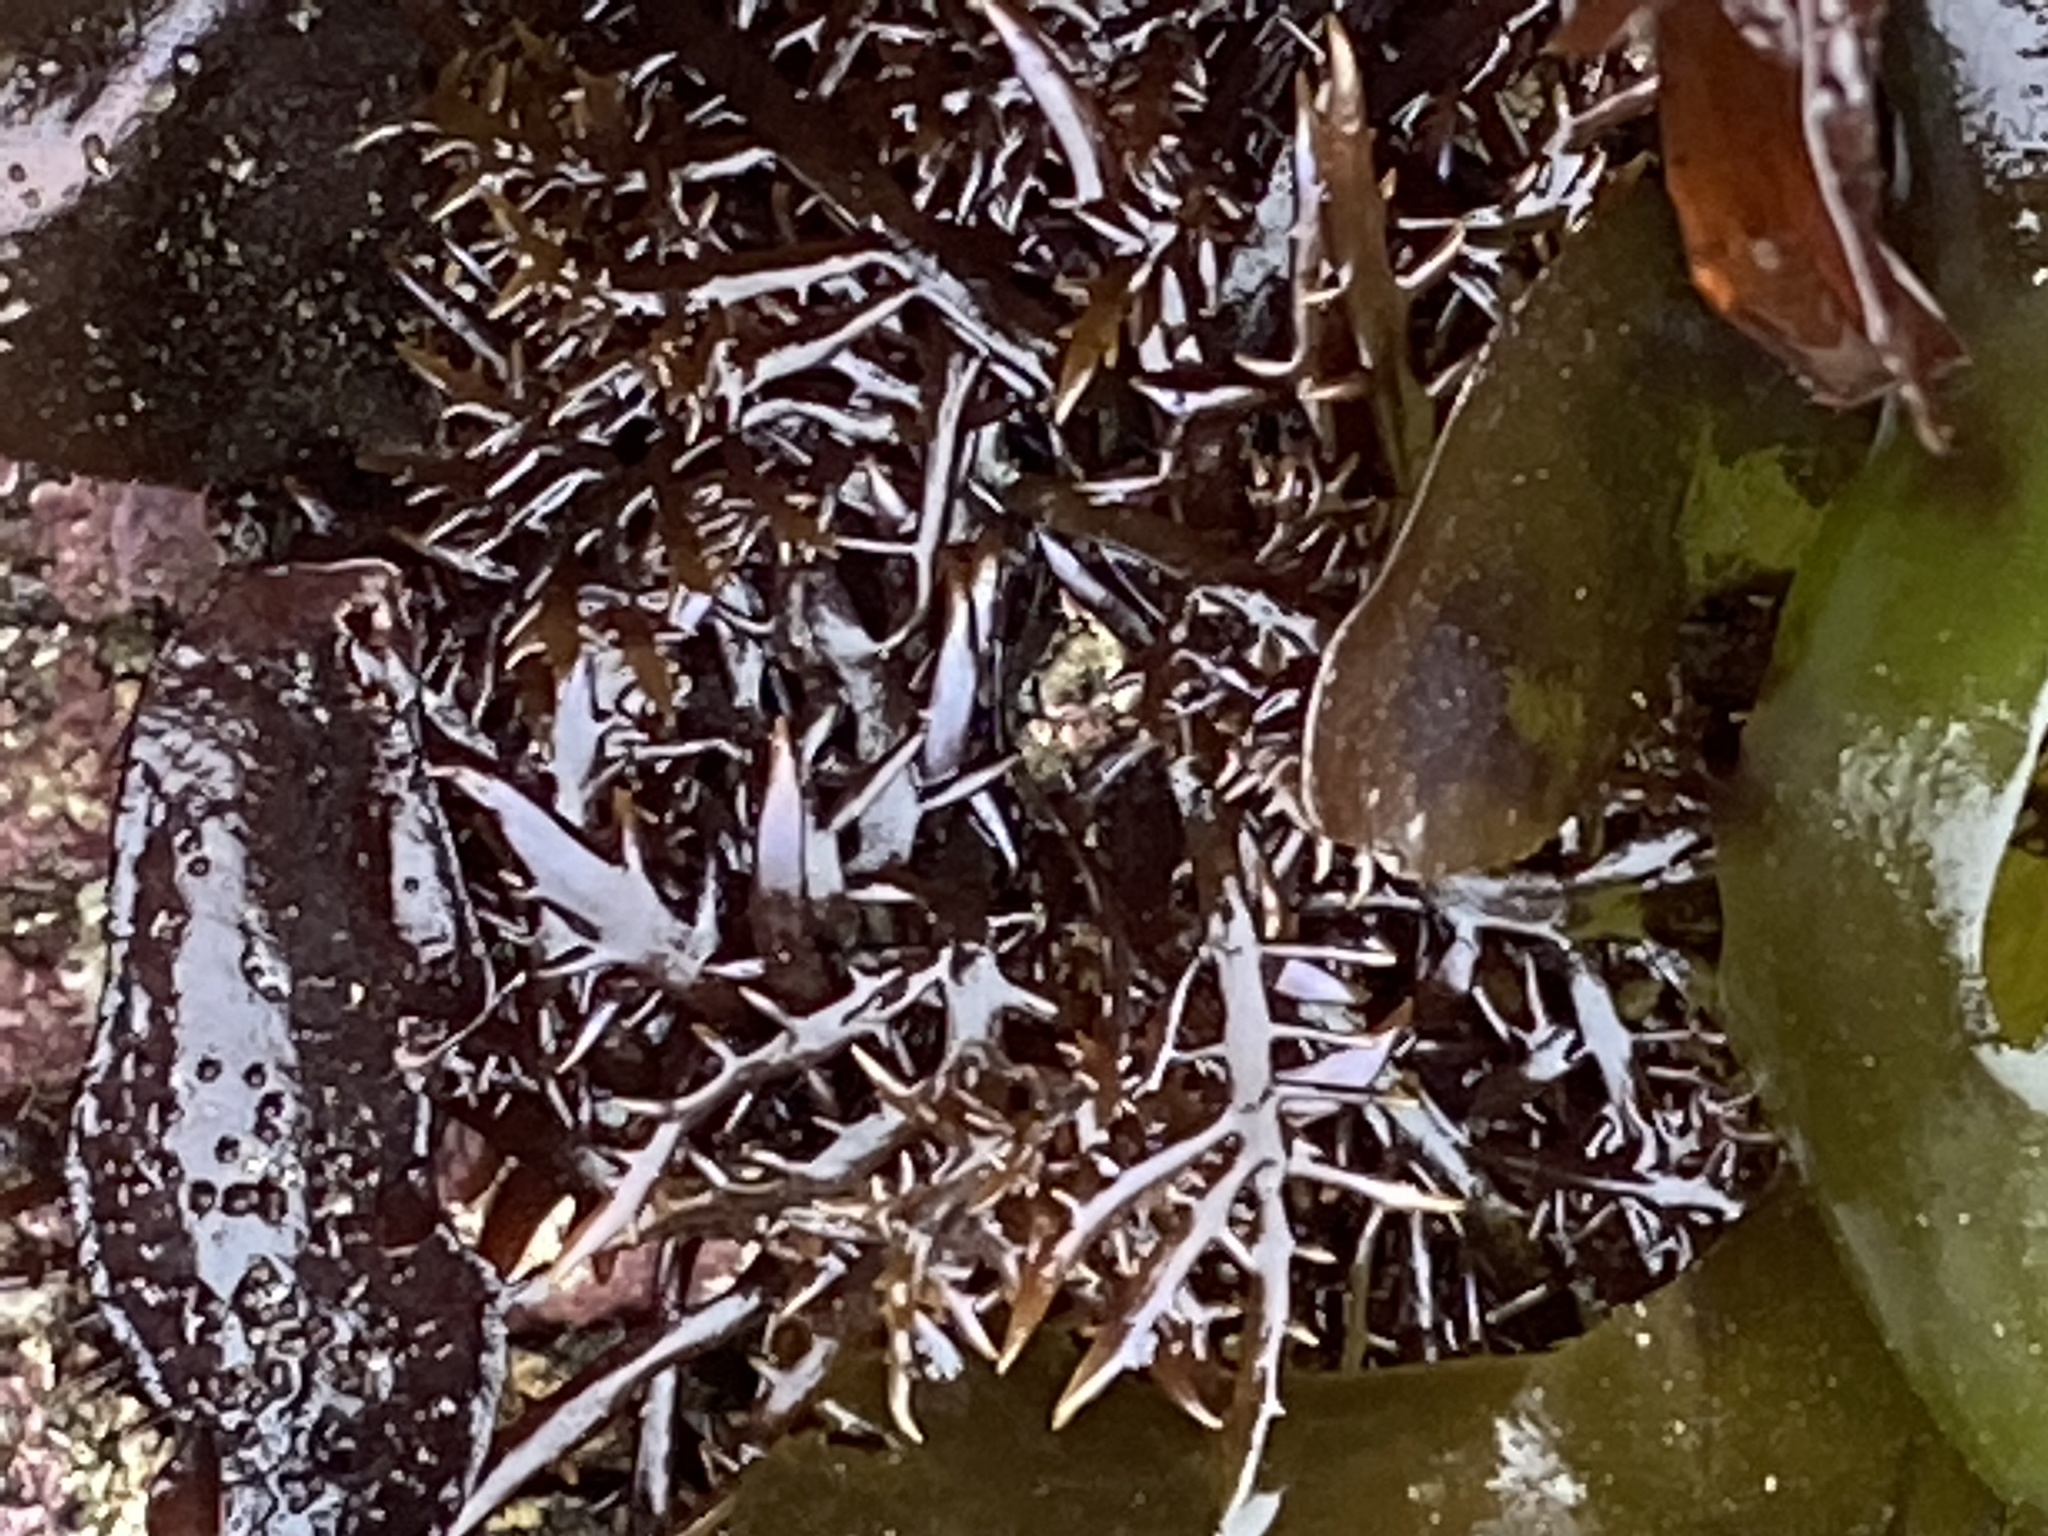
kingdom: Plantae
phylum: Rhodophyta
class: Florideophyceae
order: Gigartinales
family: Gigartinaceae
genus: Chondracanthus
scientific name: Chondracanthus canaliculatus
